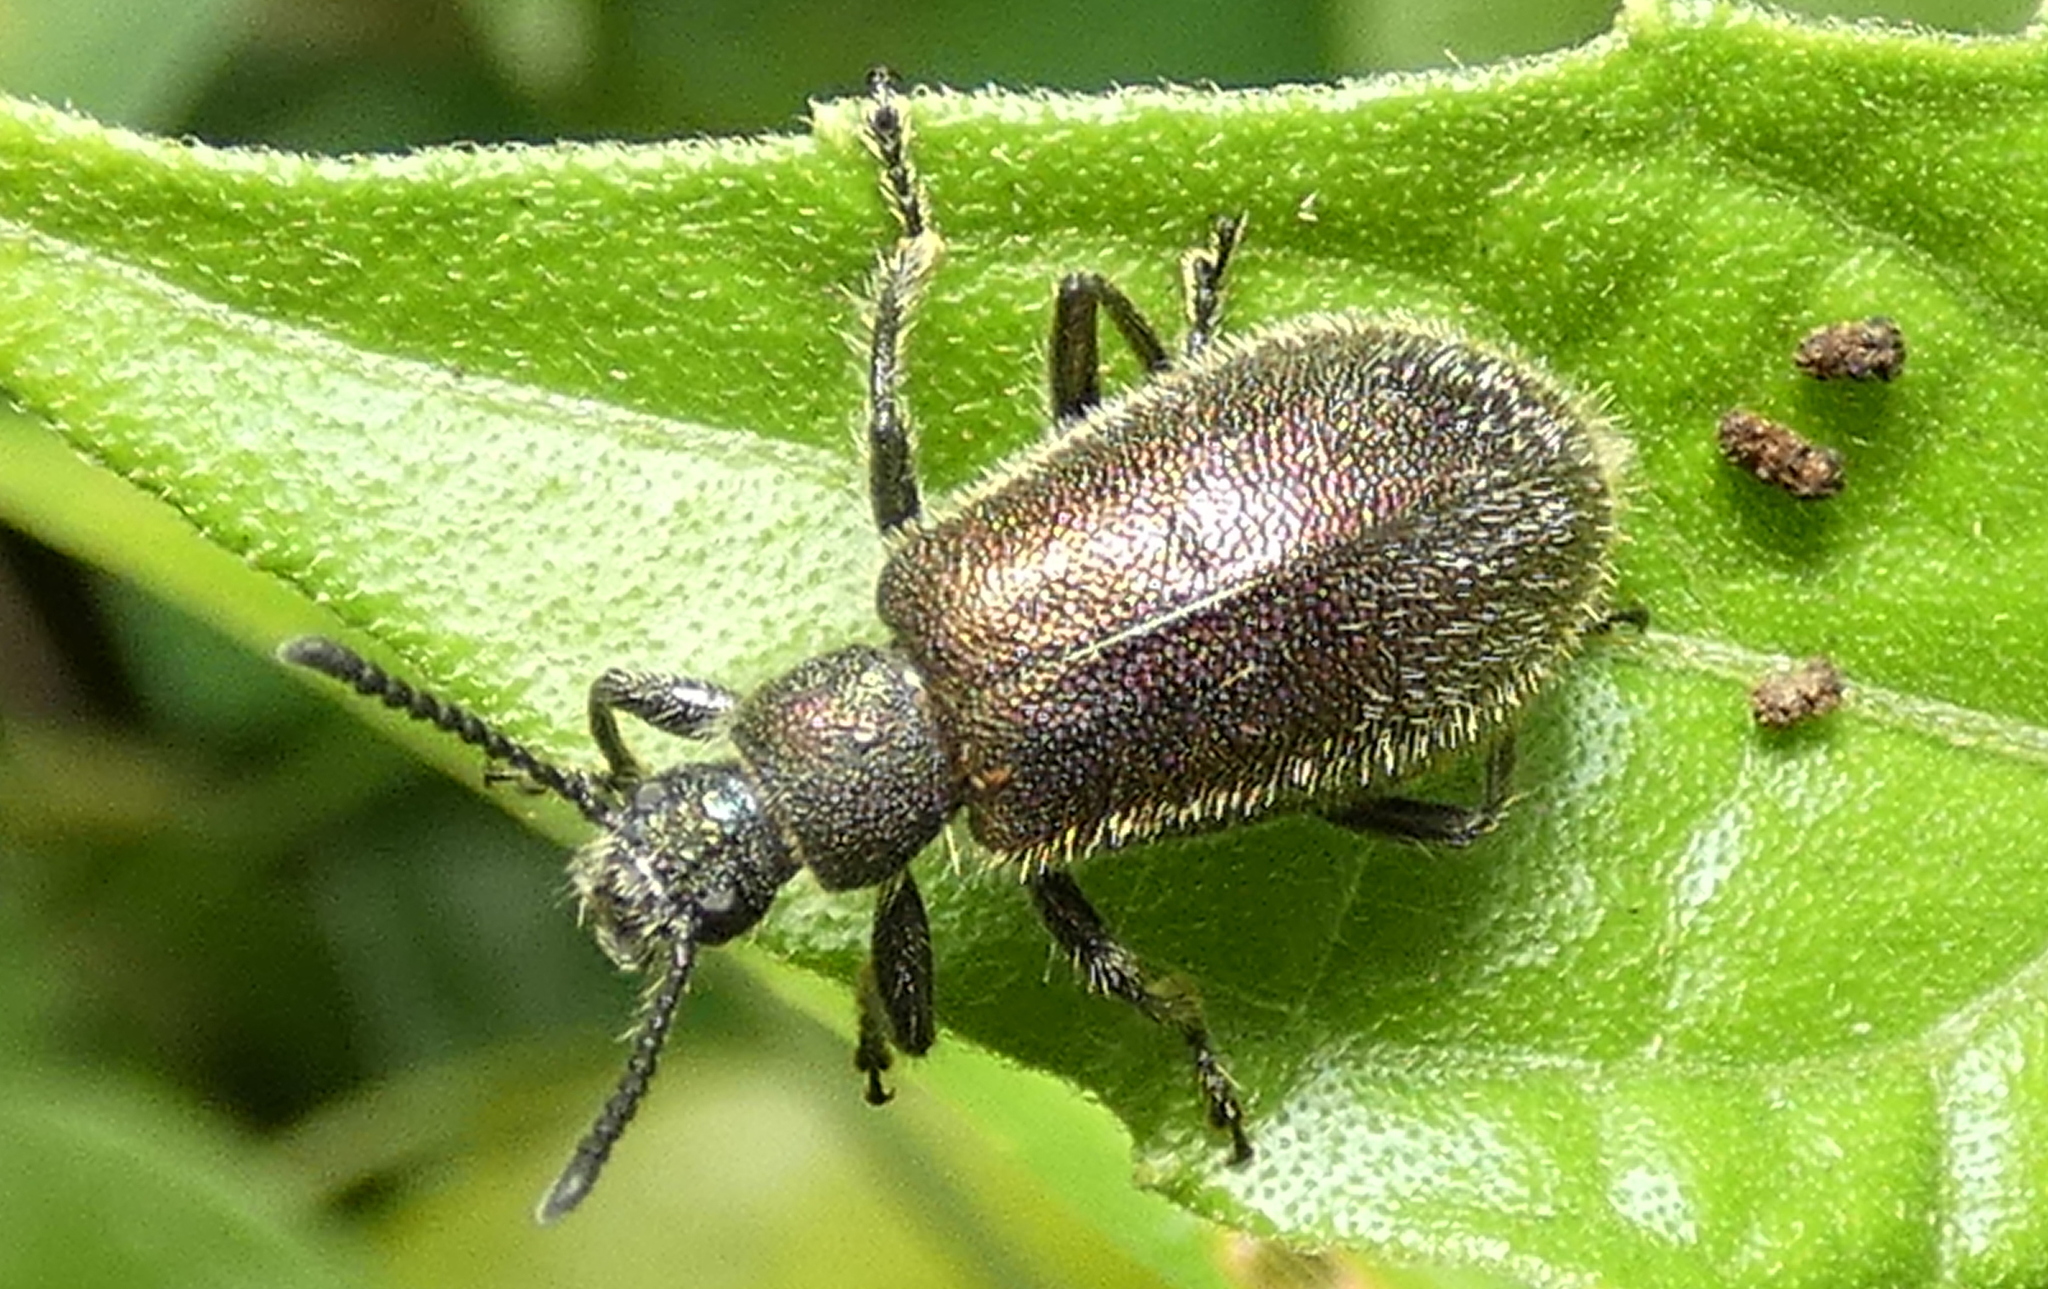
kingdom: Animalia
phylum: Arthropoda
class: Insecta
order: Coleoptera
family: Tenebrionidae
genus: Lagria
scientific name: Lagria villosa
